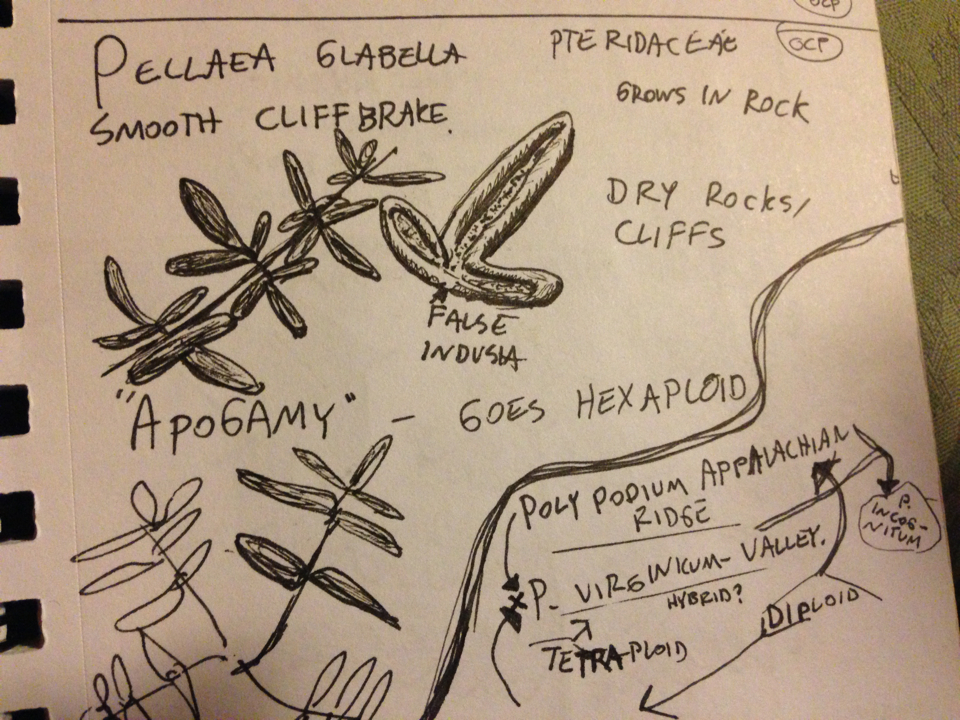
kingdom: Plantae
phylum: Tracheophyta
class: Polypodiopsida
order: Polypodiales
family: Pteridaceae
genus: Pellaea
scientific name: Pellaea glabella
